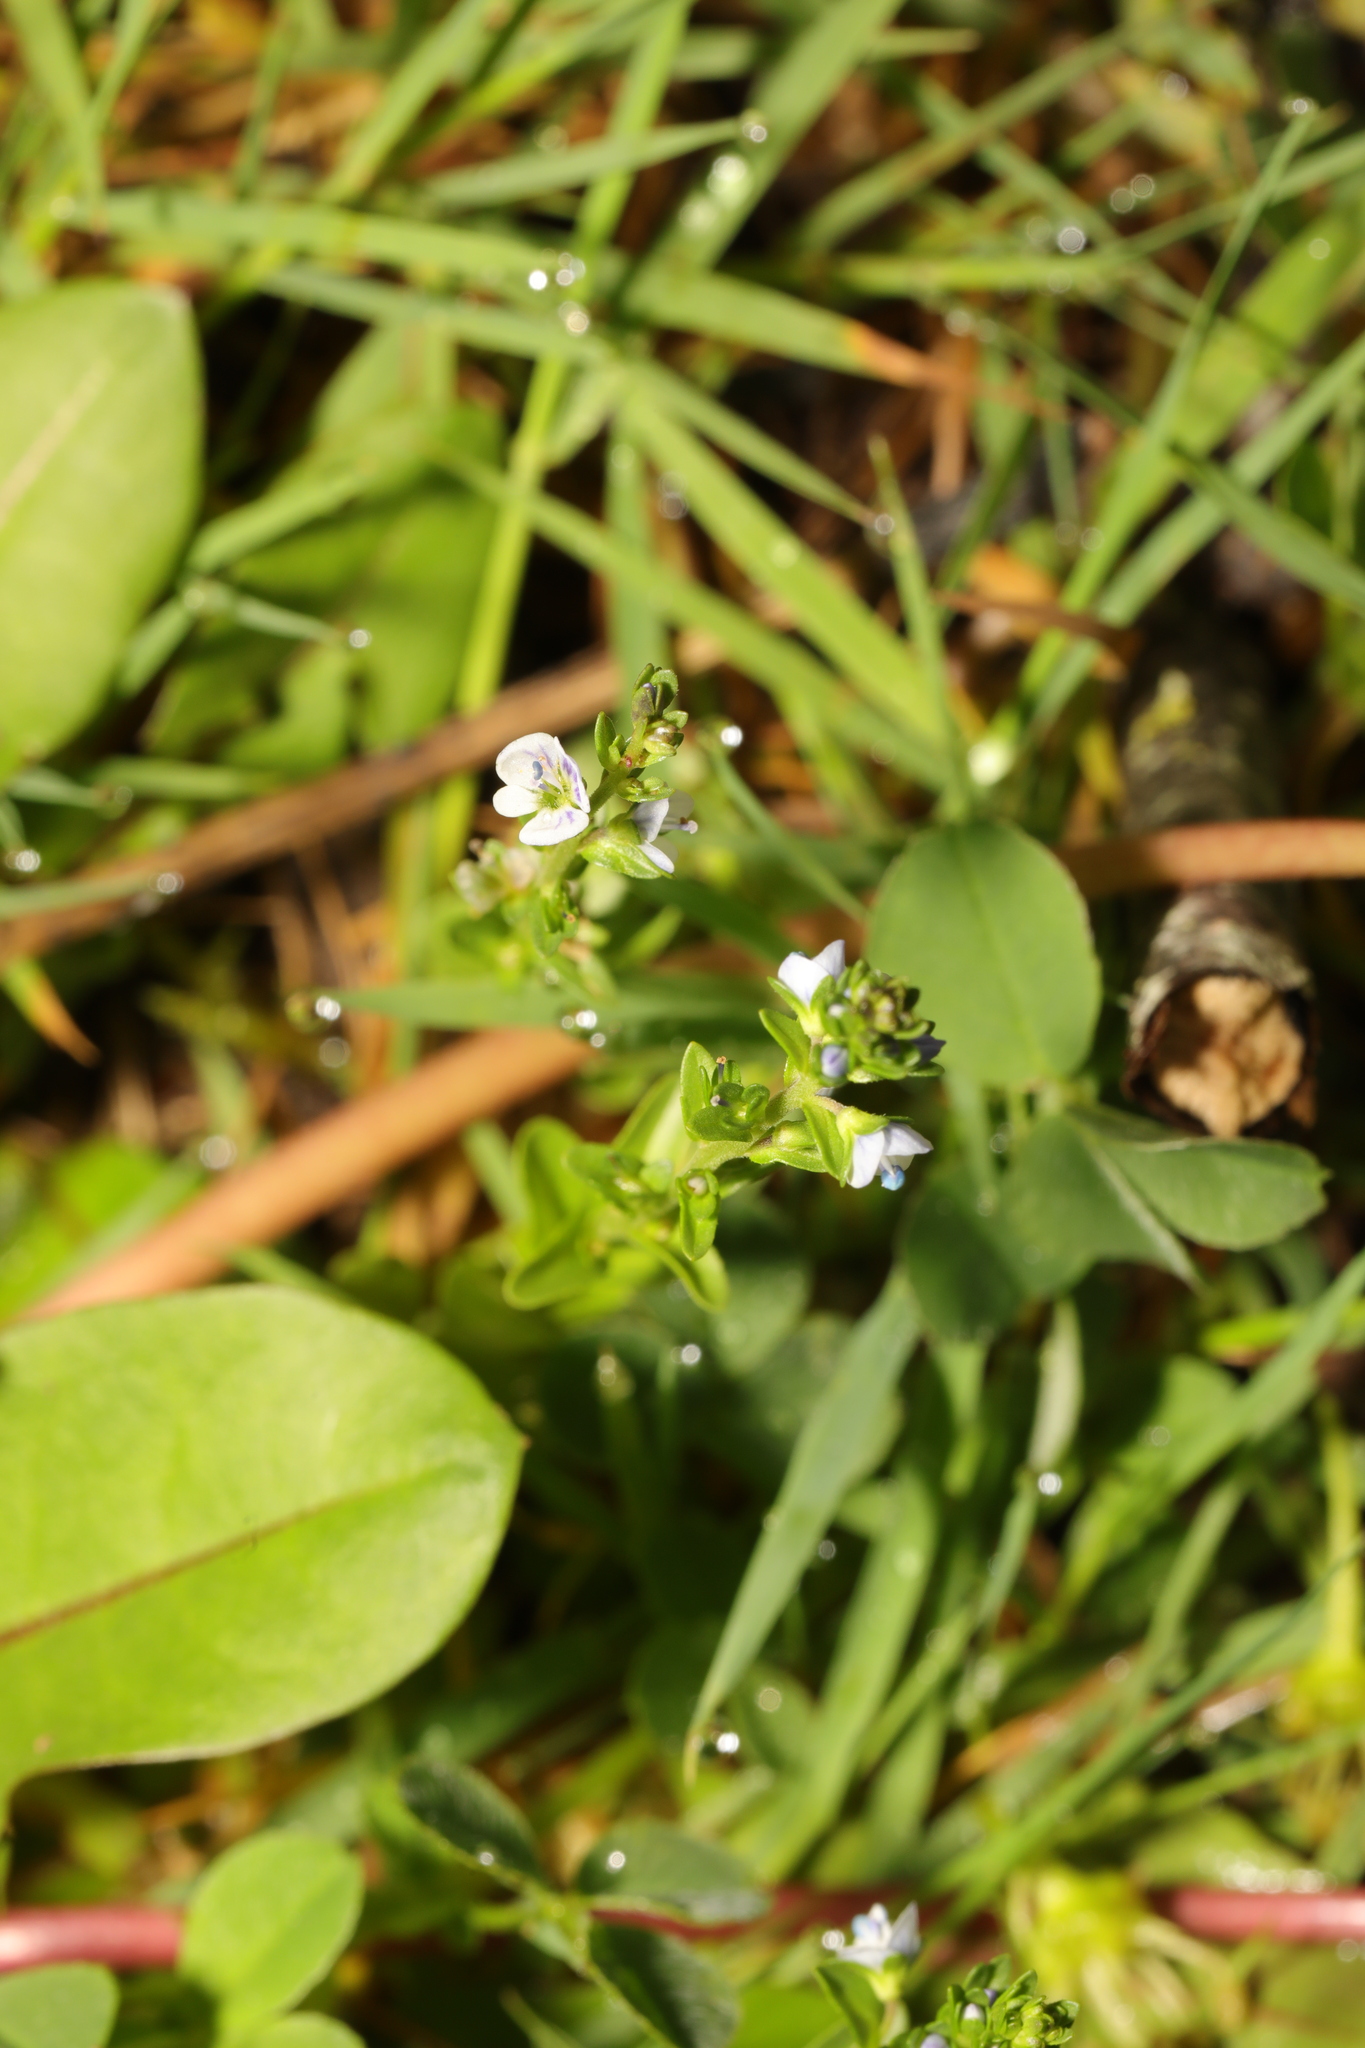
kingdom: Plantae
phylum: Tracheophyta
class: Magnoliopsida
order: Lamiales
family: Plantaginaceae
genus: Veronica
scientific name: Veronica serpyllifolia
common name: Thyme-leaved speedwell
